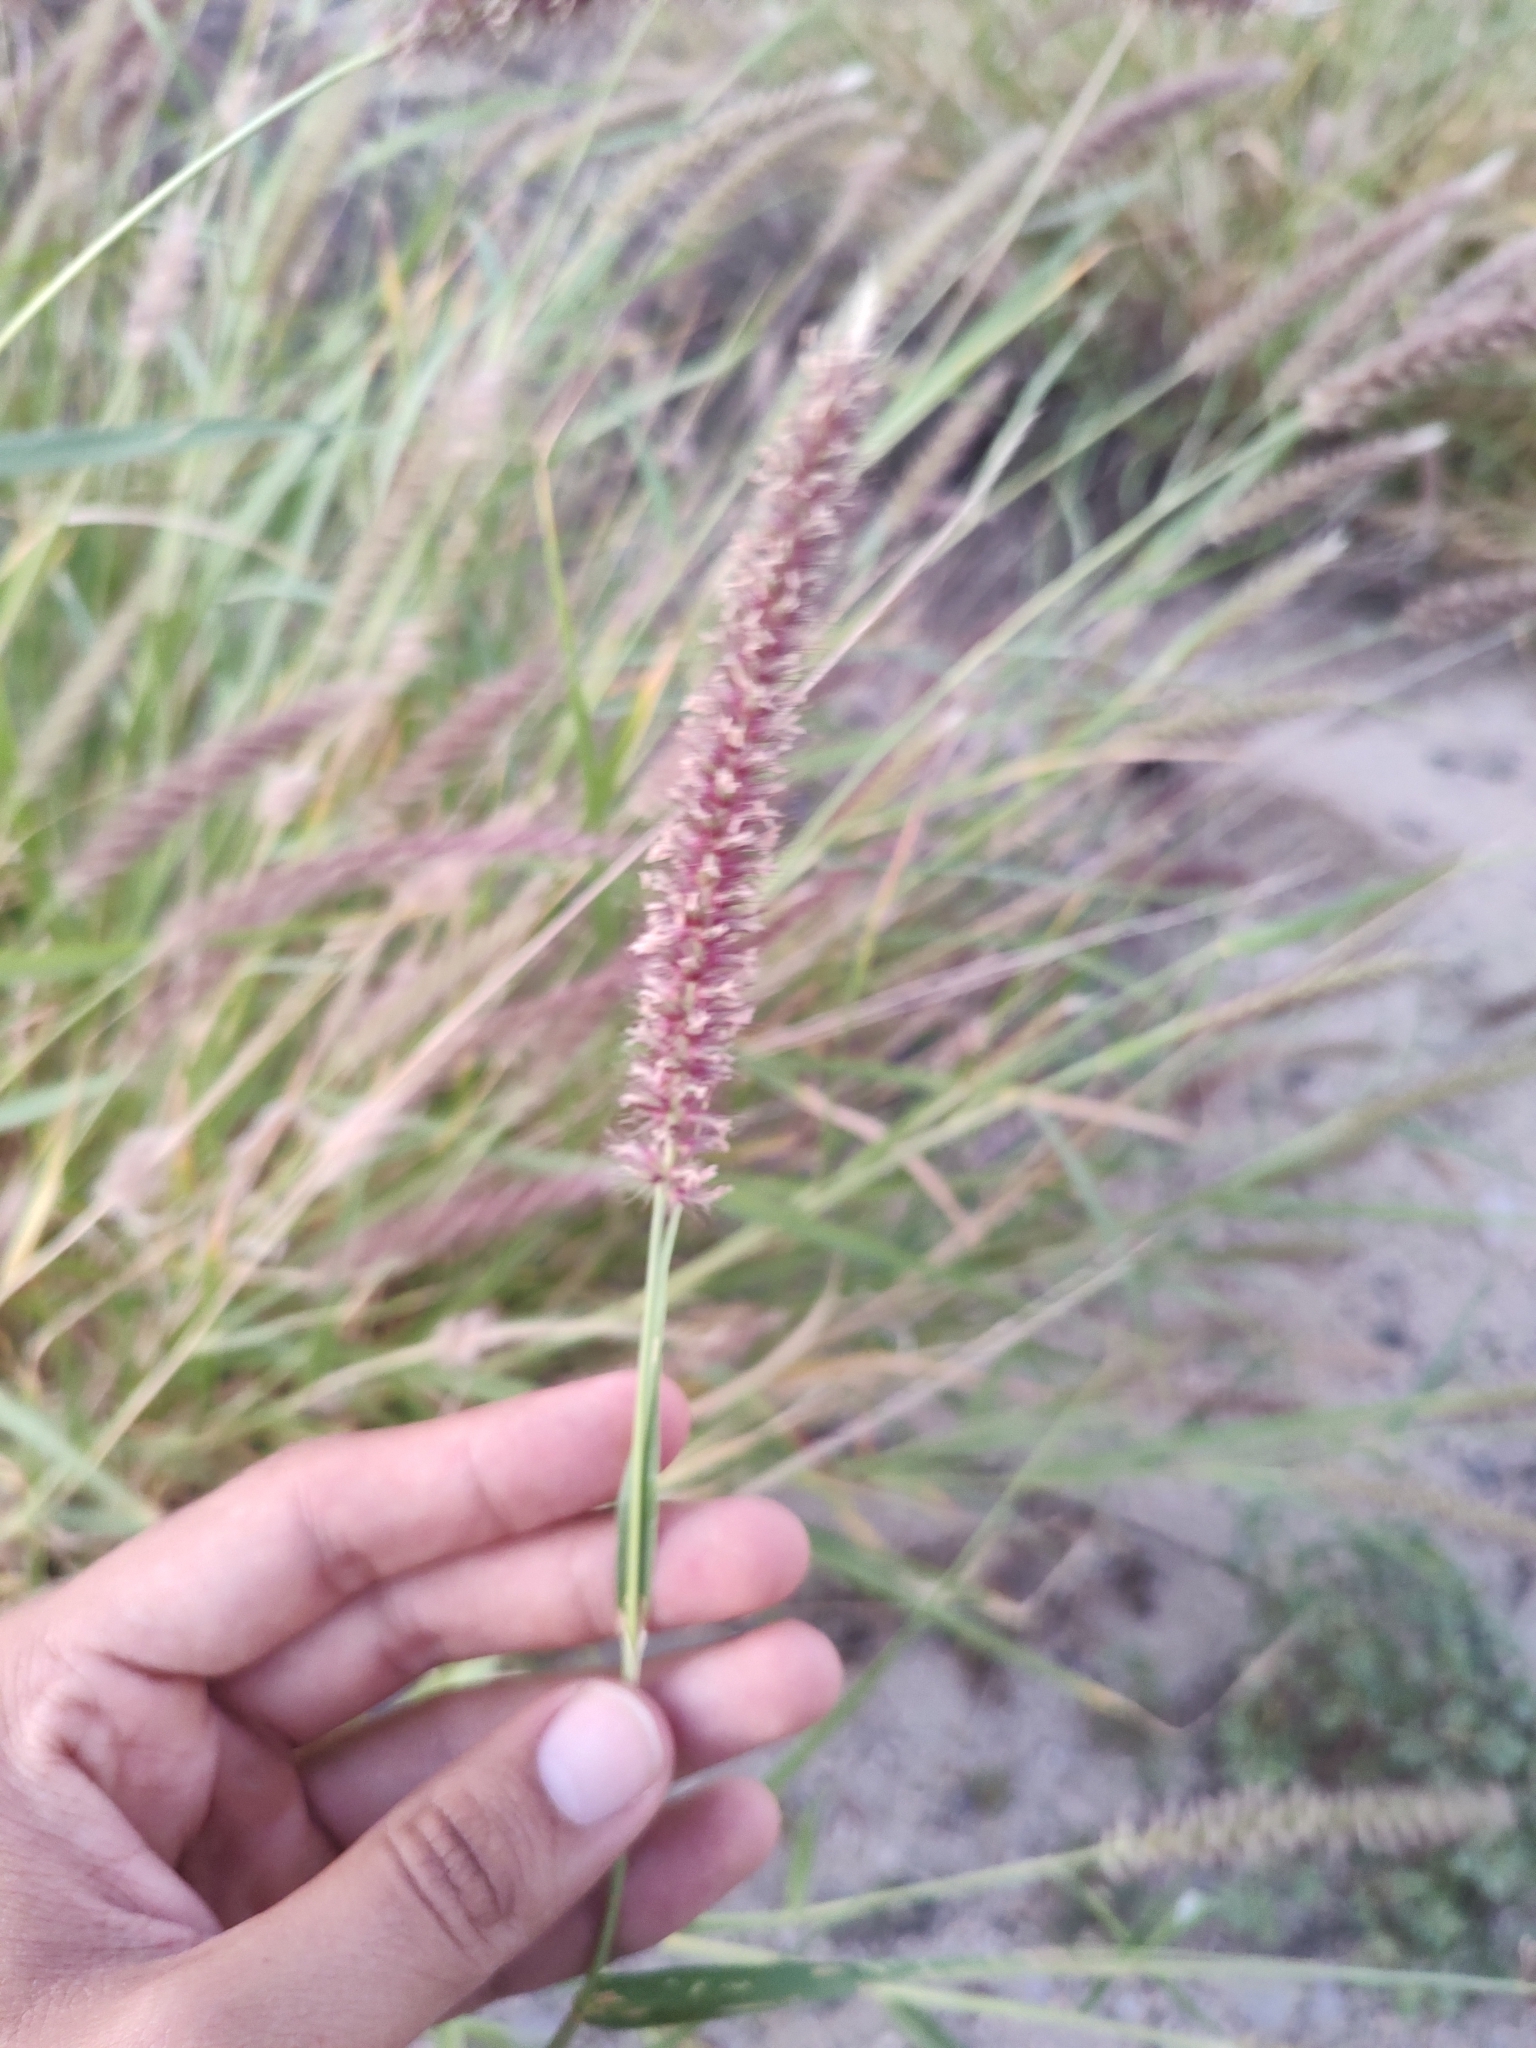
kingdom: Plantae
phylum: Tracheophyta
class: Liliopsida
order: Poales
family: Poaceae
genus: Cenchrus
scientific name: Cenchrus ciliaris
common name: Buffelgrass
